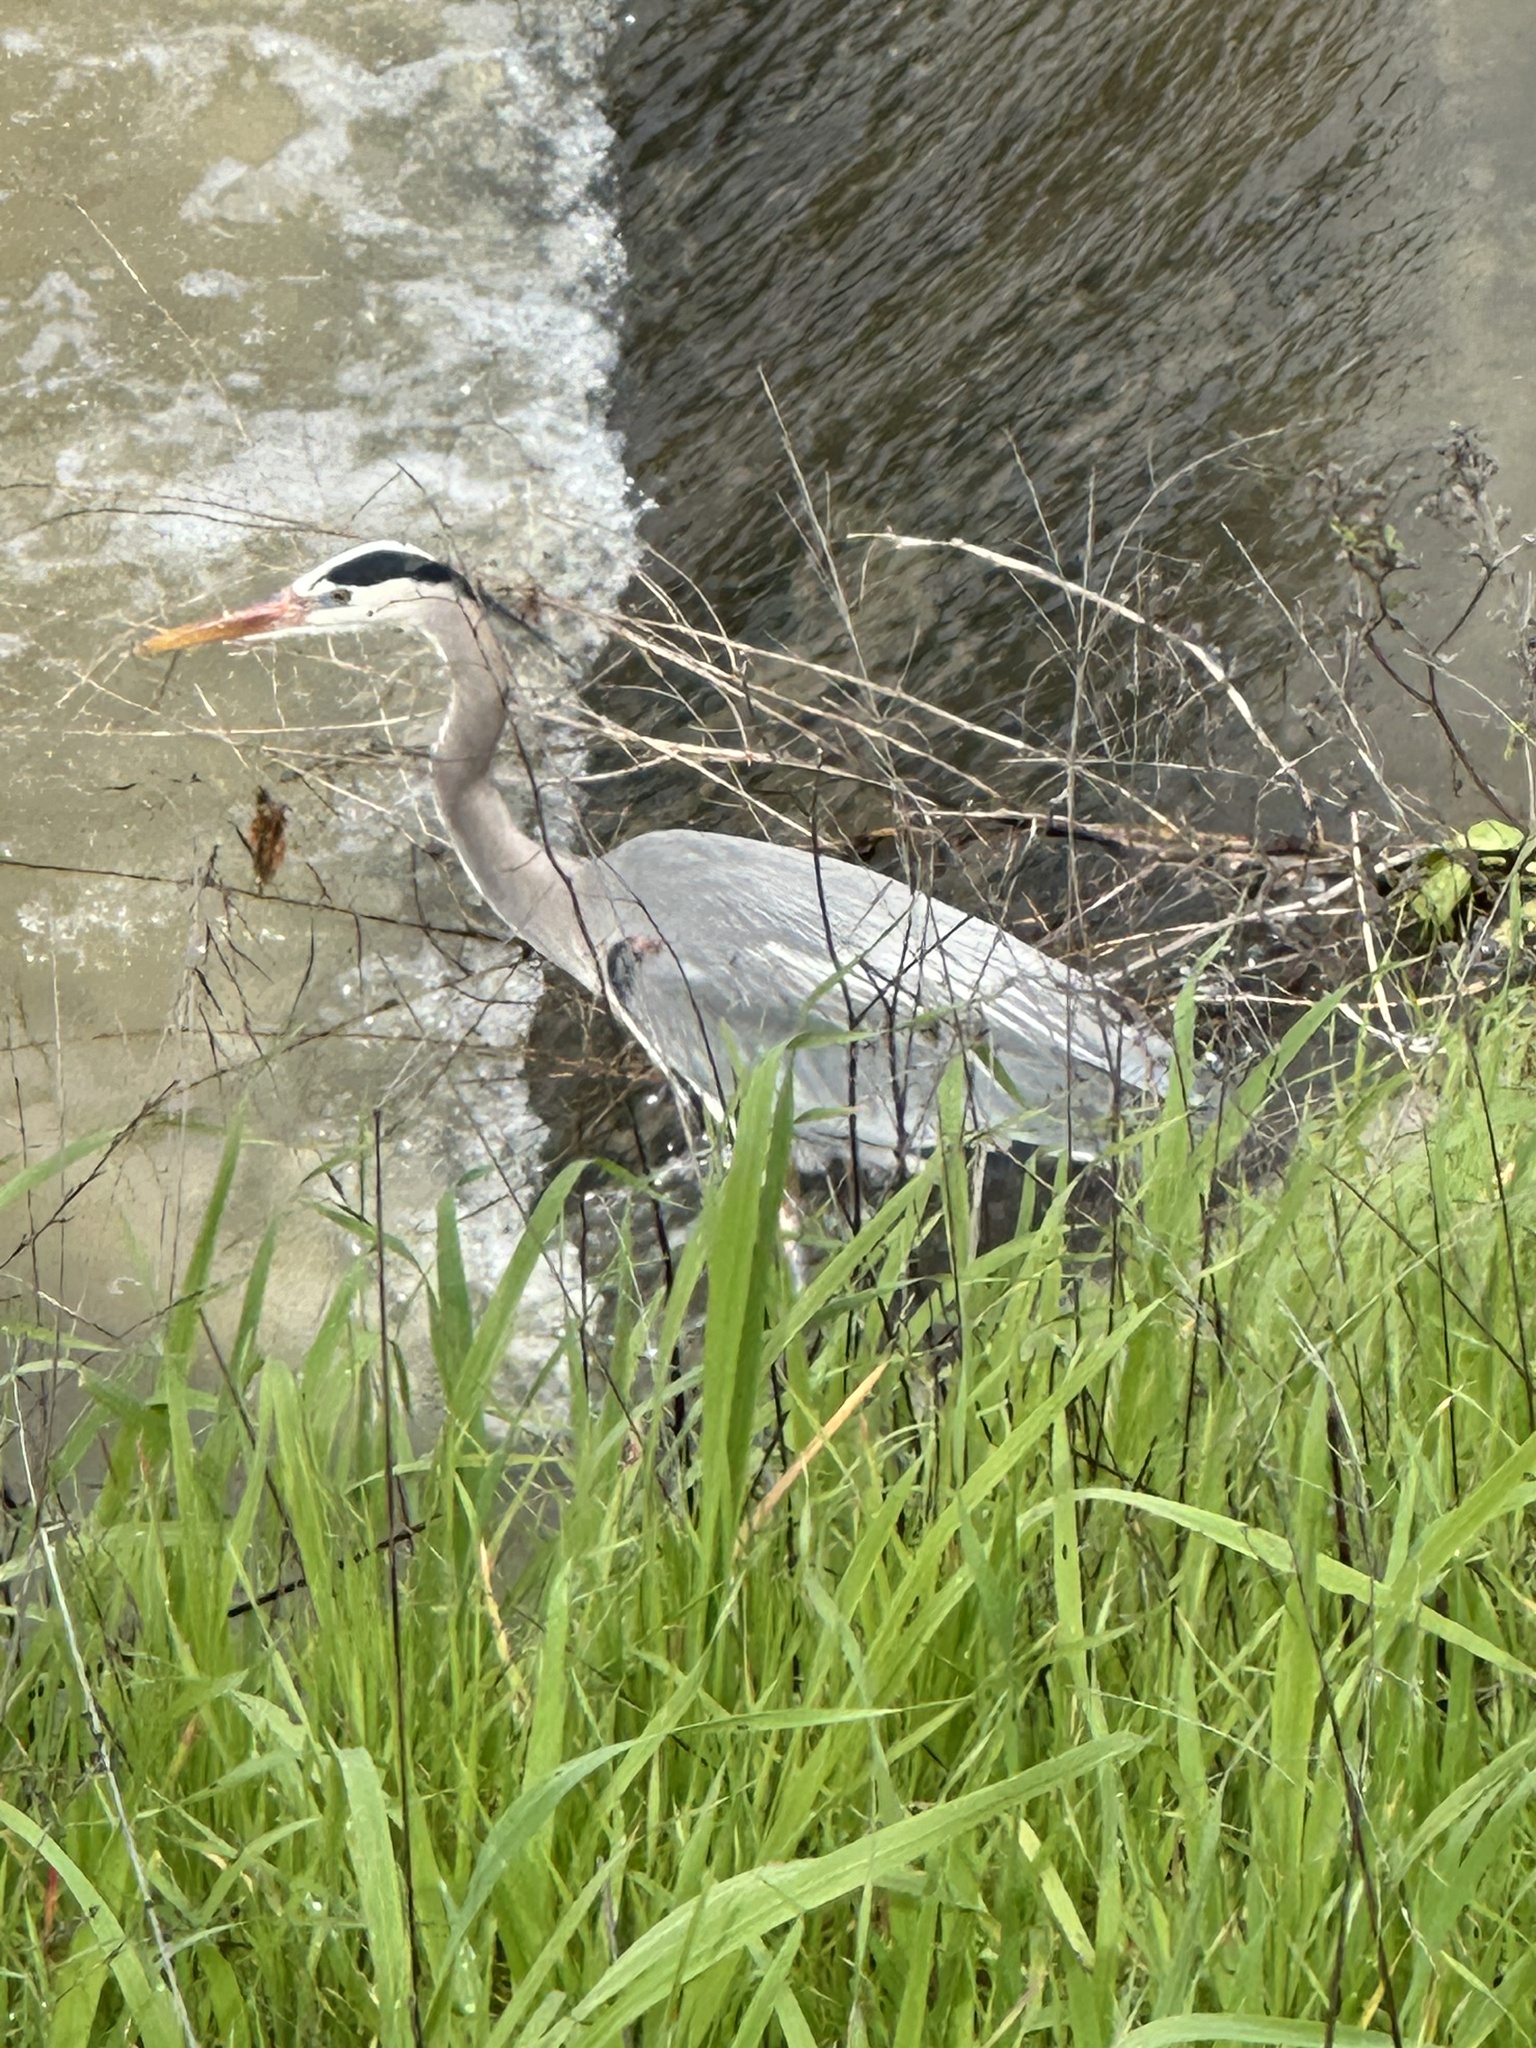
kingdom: Animalia
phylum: Chordata
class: Aves
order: Pelecaniformes
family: Ardeidae
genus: Ardea
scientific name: Ardea herodias
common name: Great blue heron
